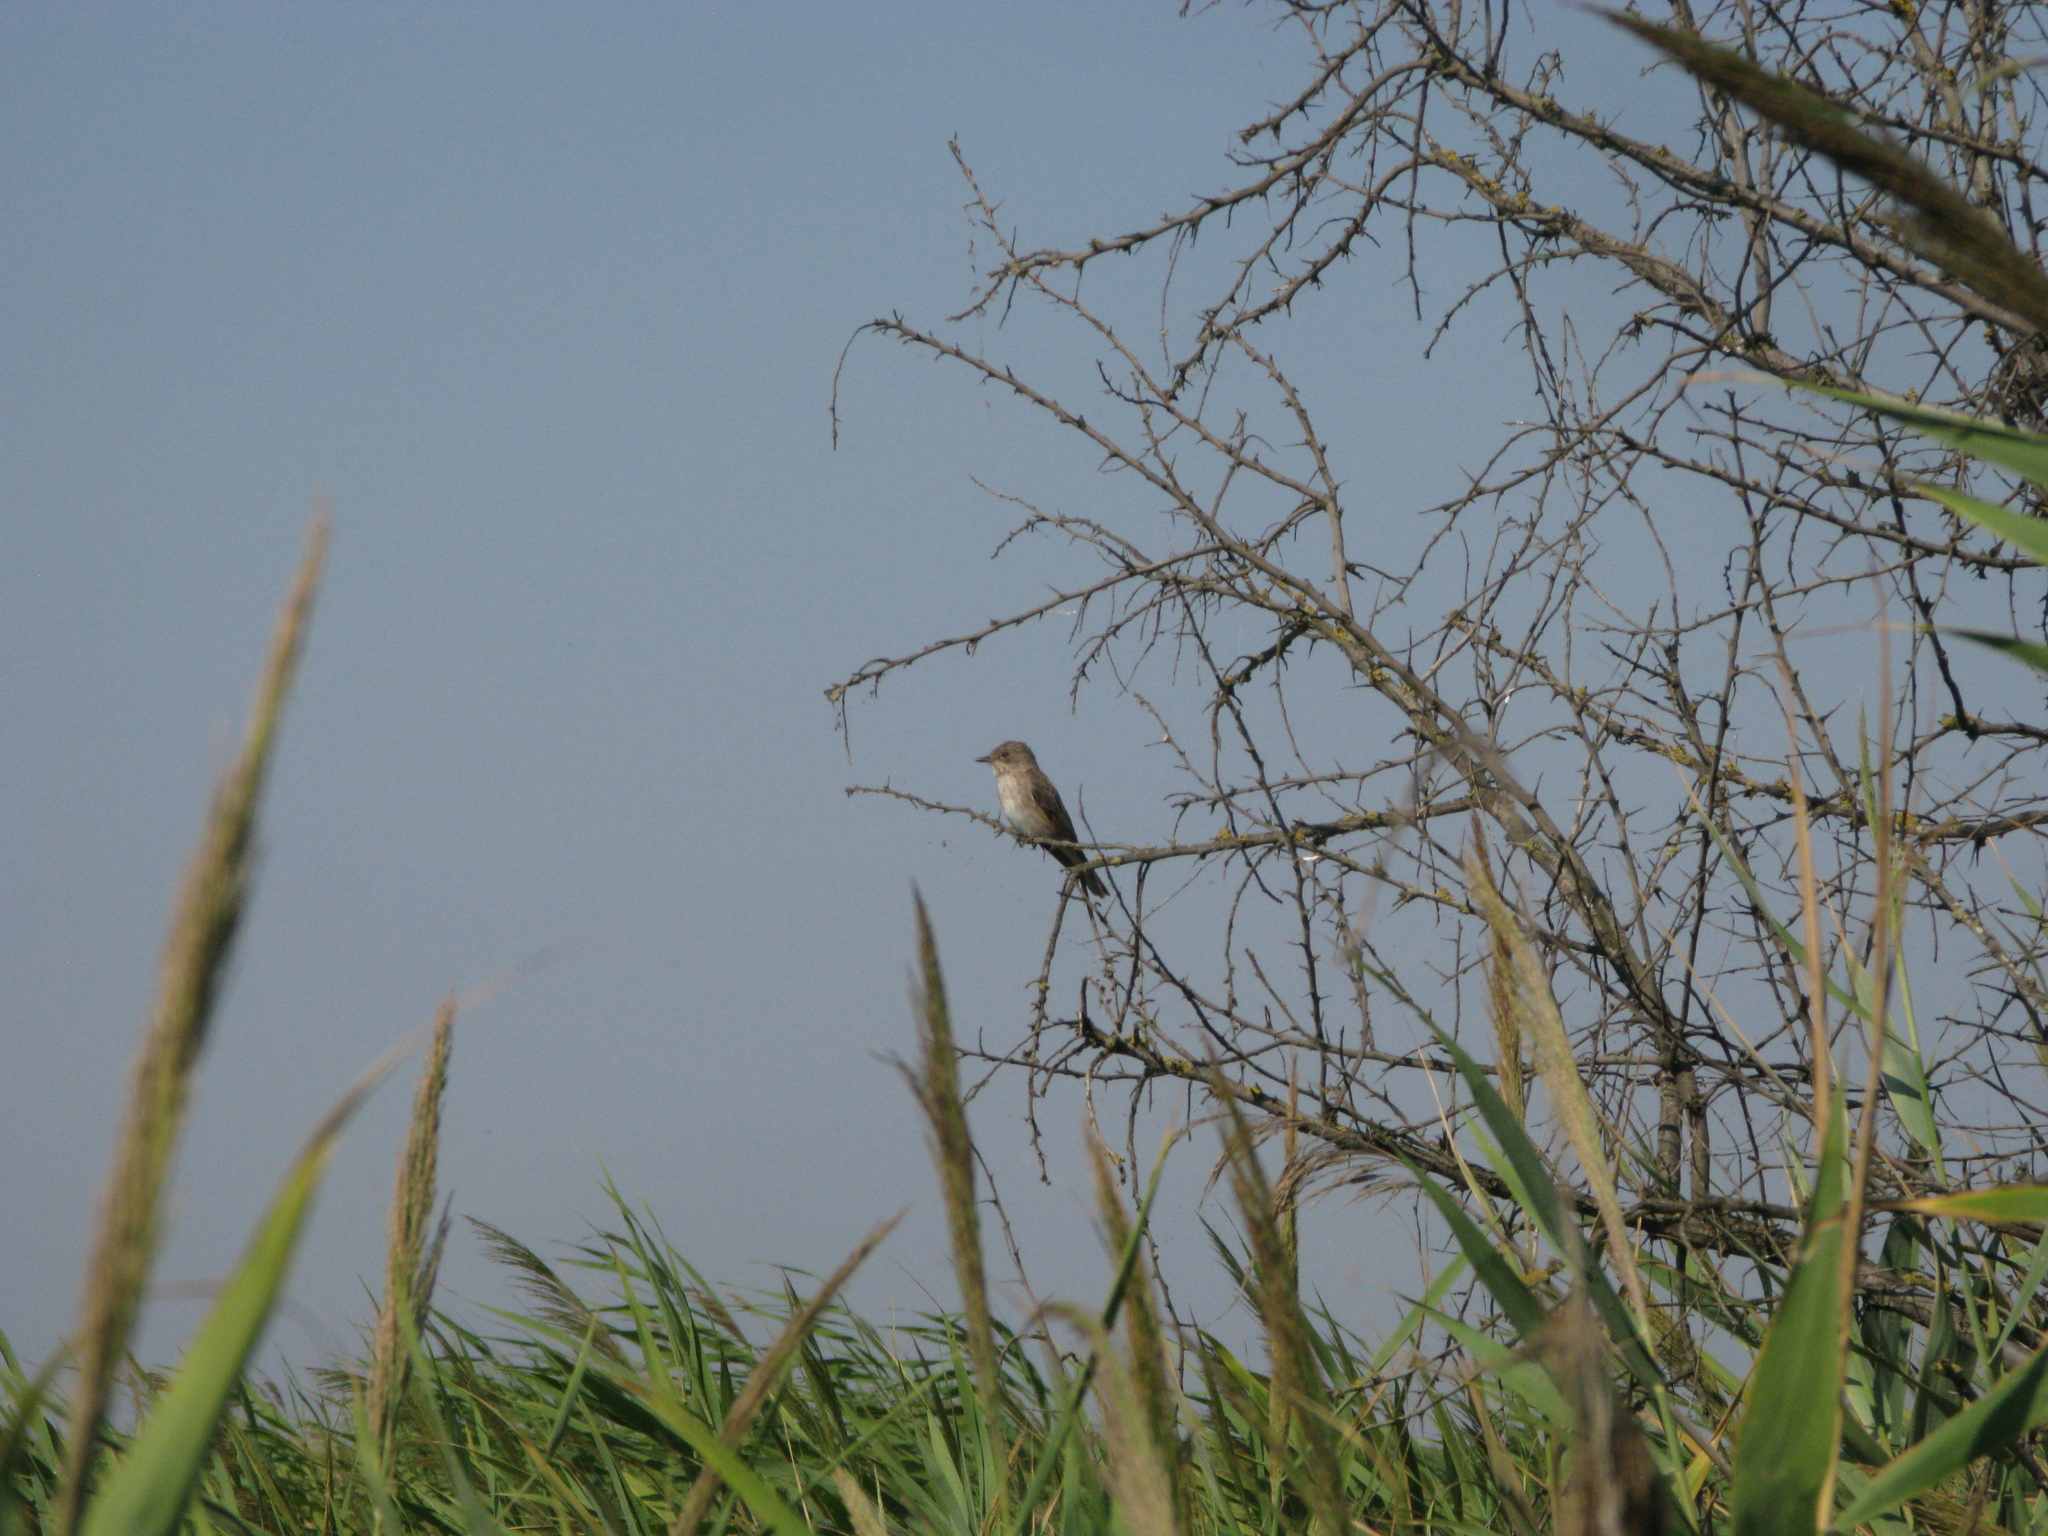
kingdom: Animalia
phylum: Chordata
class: Aves
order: Passeriformes
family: Muscicapidae
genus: Muscicapa
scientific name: Muscicapa striata
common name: Spotted flycatcher
